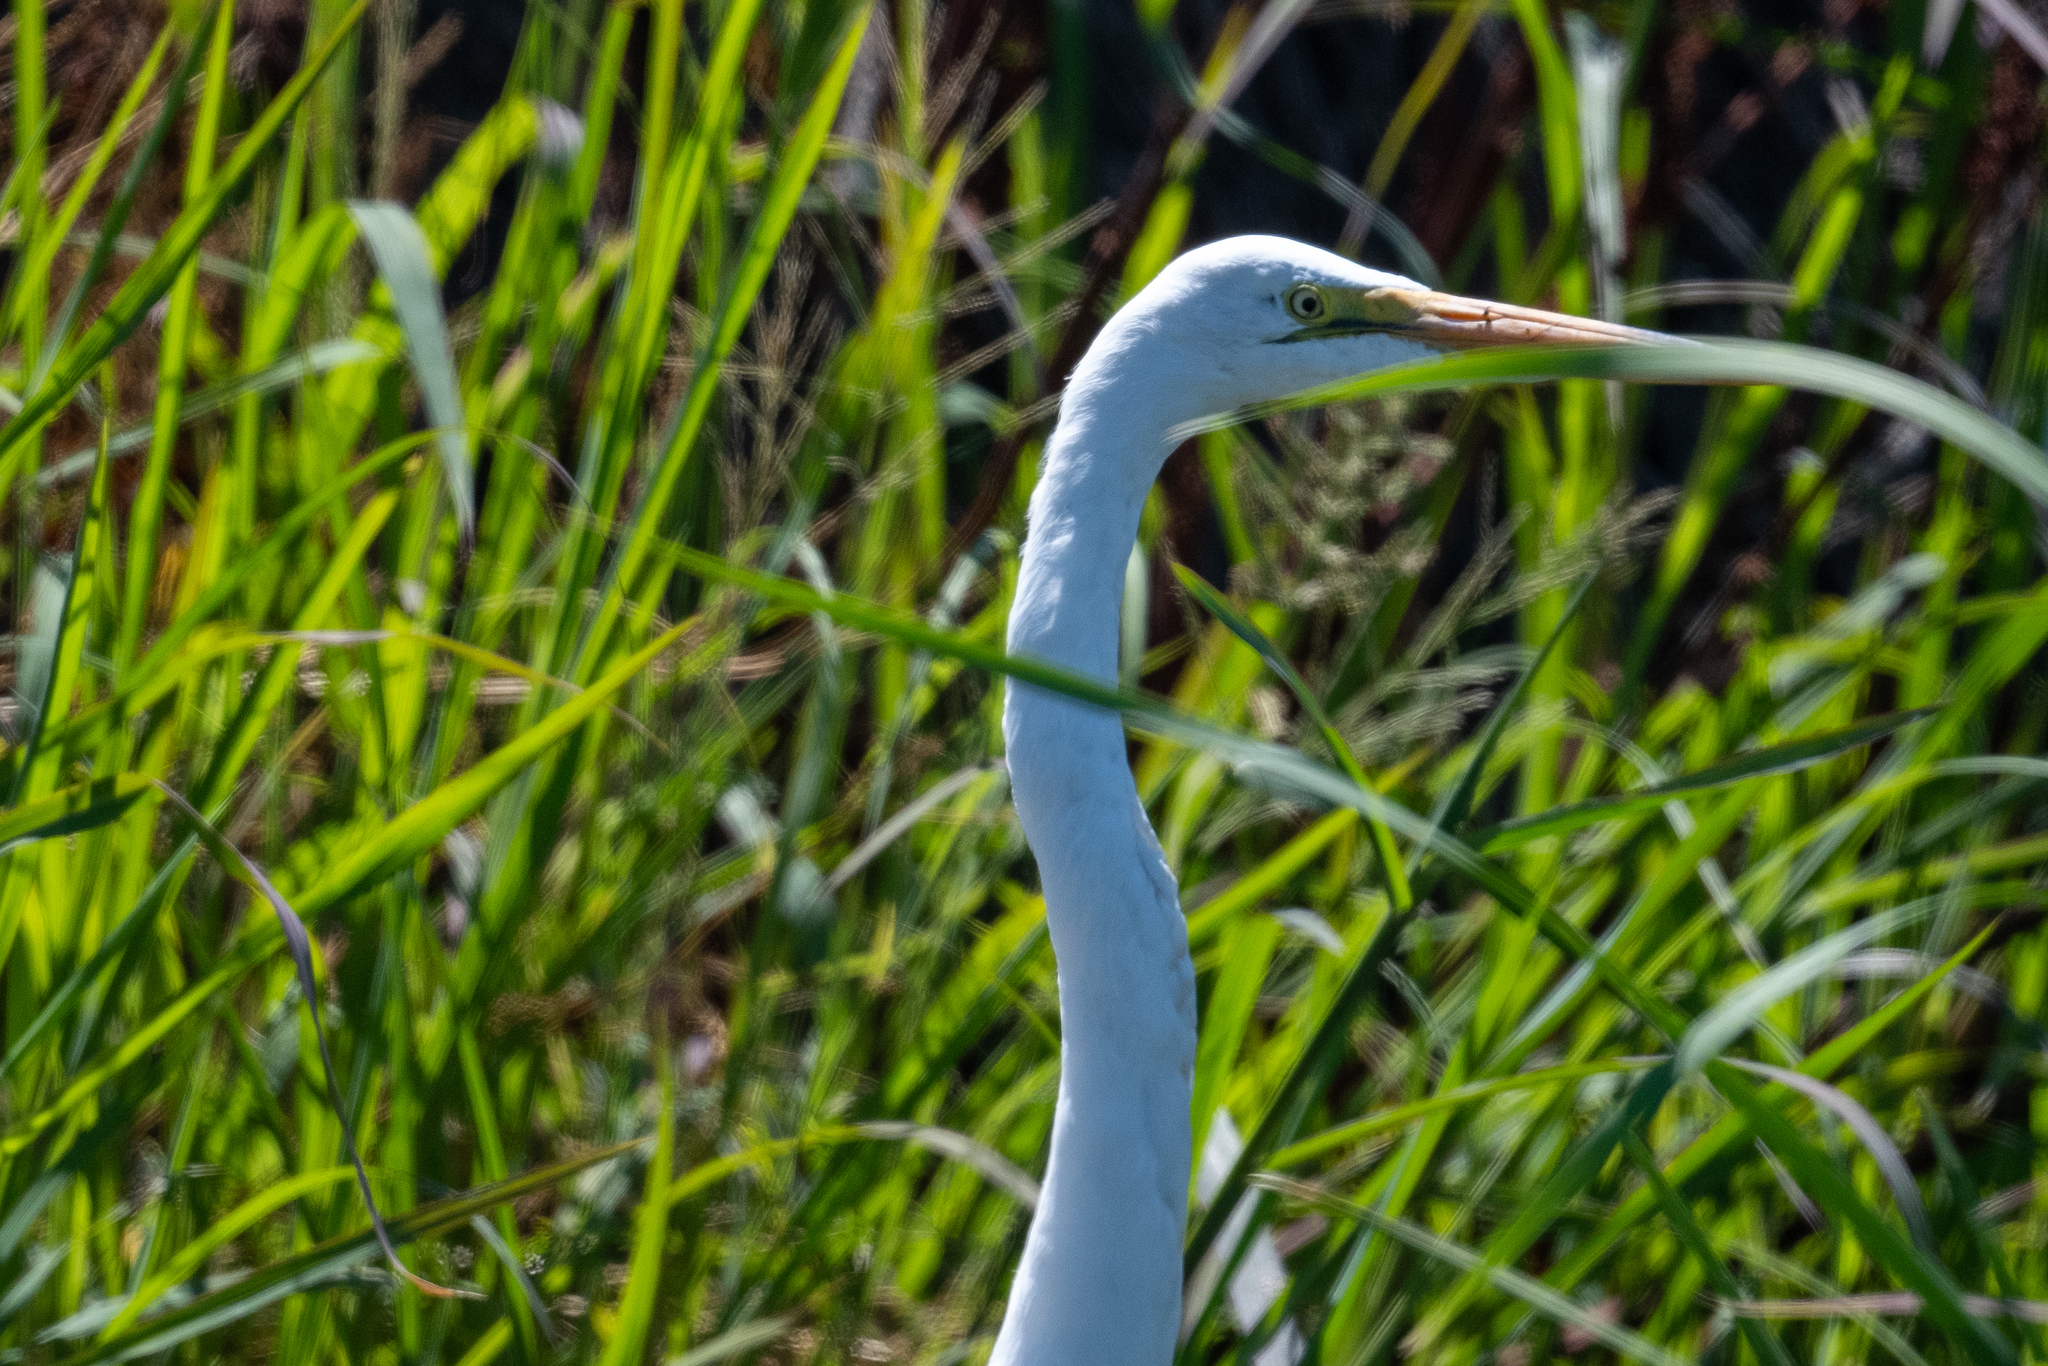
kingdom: Animalia
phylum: Chordata
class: Aves
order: Pelecaniformes
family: Ardeidae
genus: Ardea
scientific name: Ardea alba
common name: Great egret
